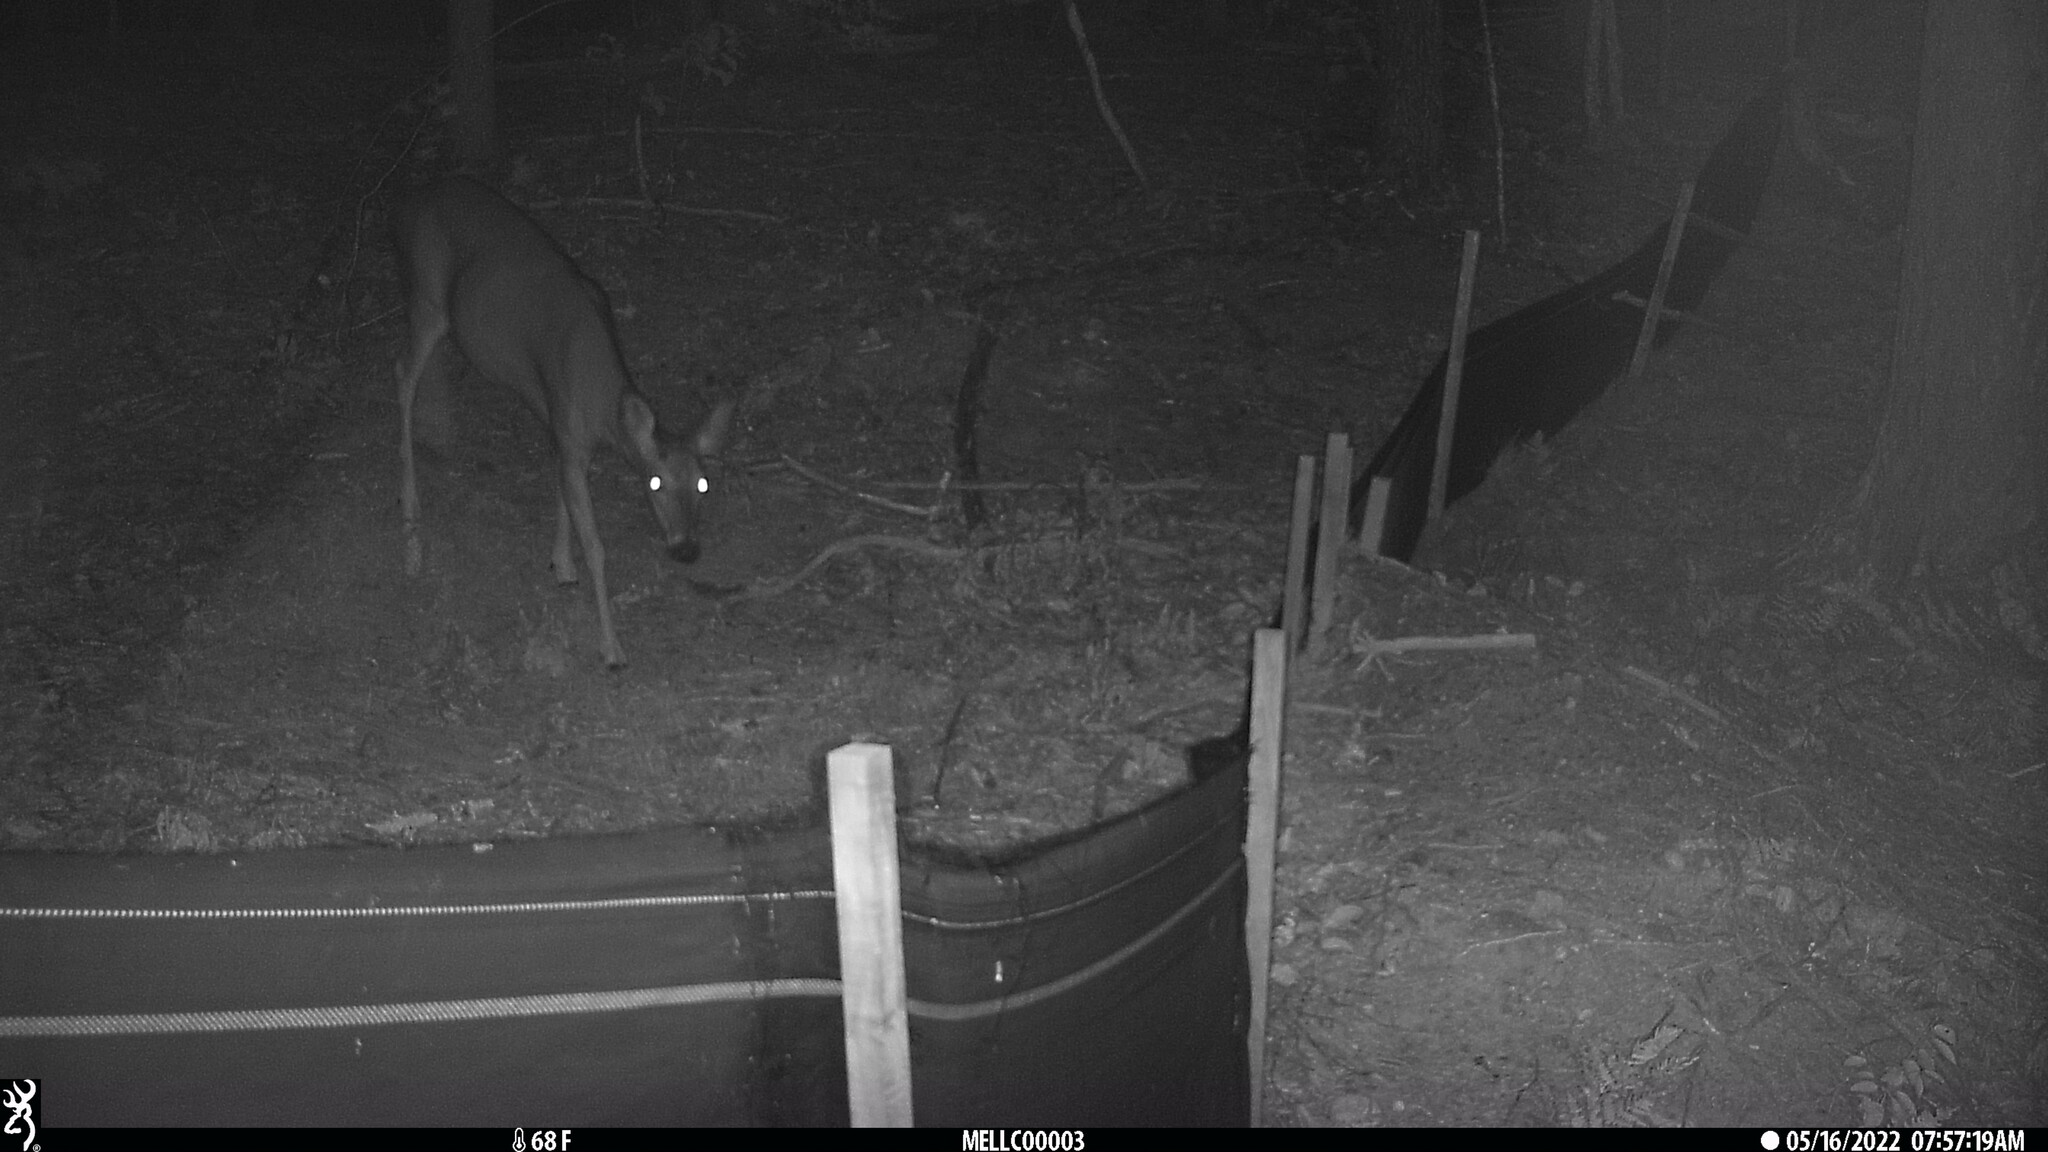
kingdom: Animalia
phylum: Chordata
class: Mammalia
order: Artiodactyla
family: Cervidae
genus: Odocoileus
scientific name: Odocoileus virginianus
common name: White-tailed deer
